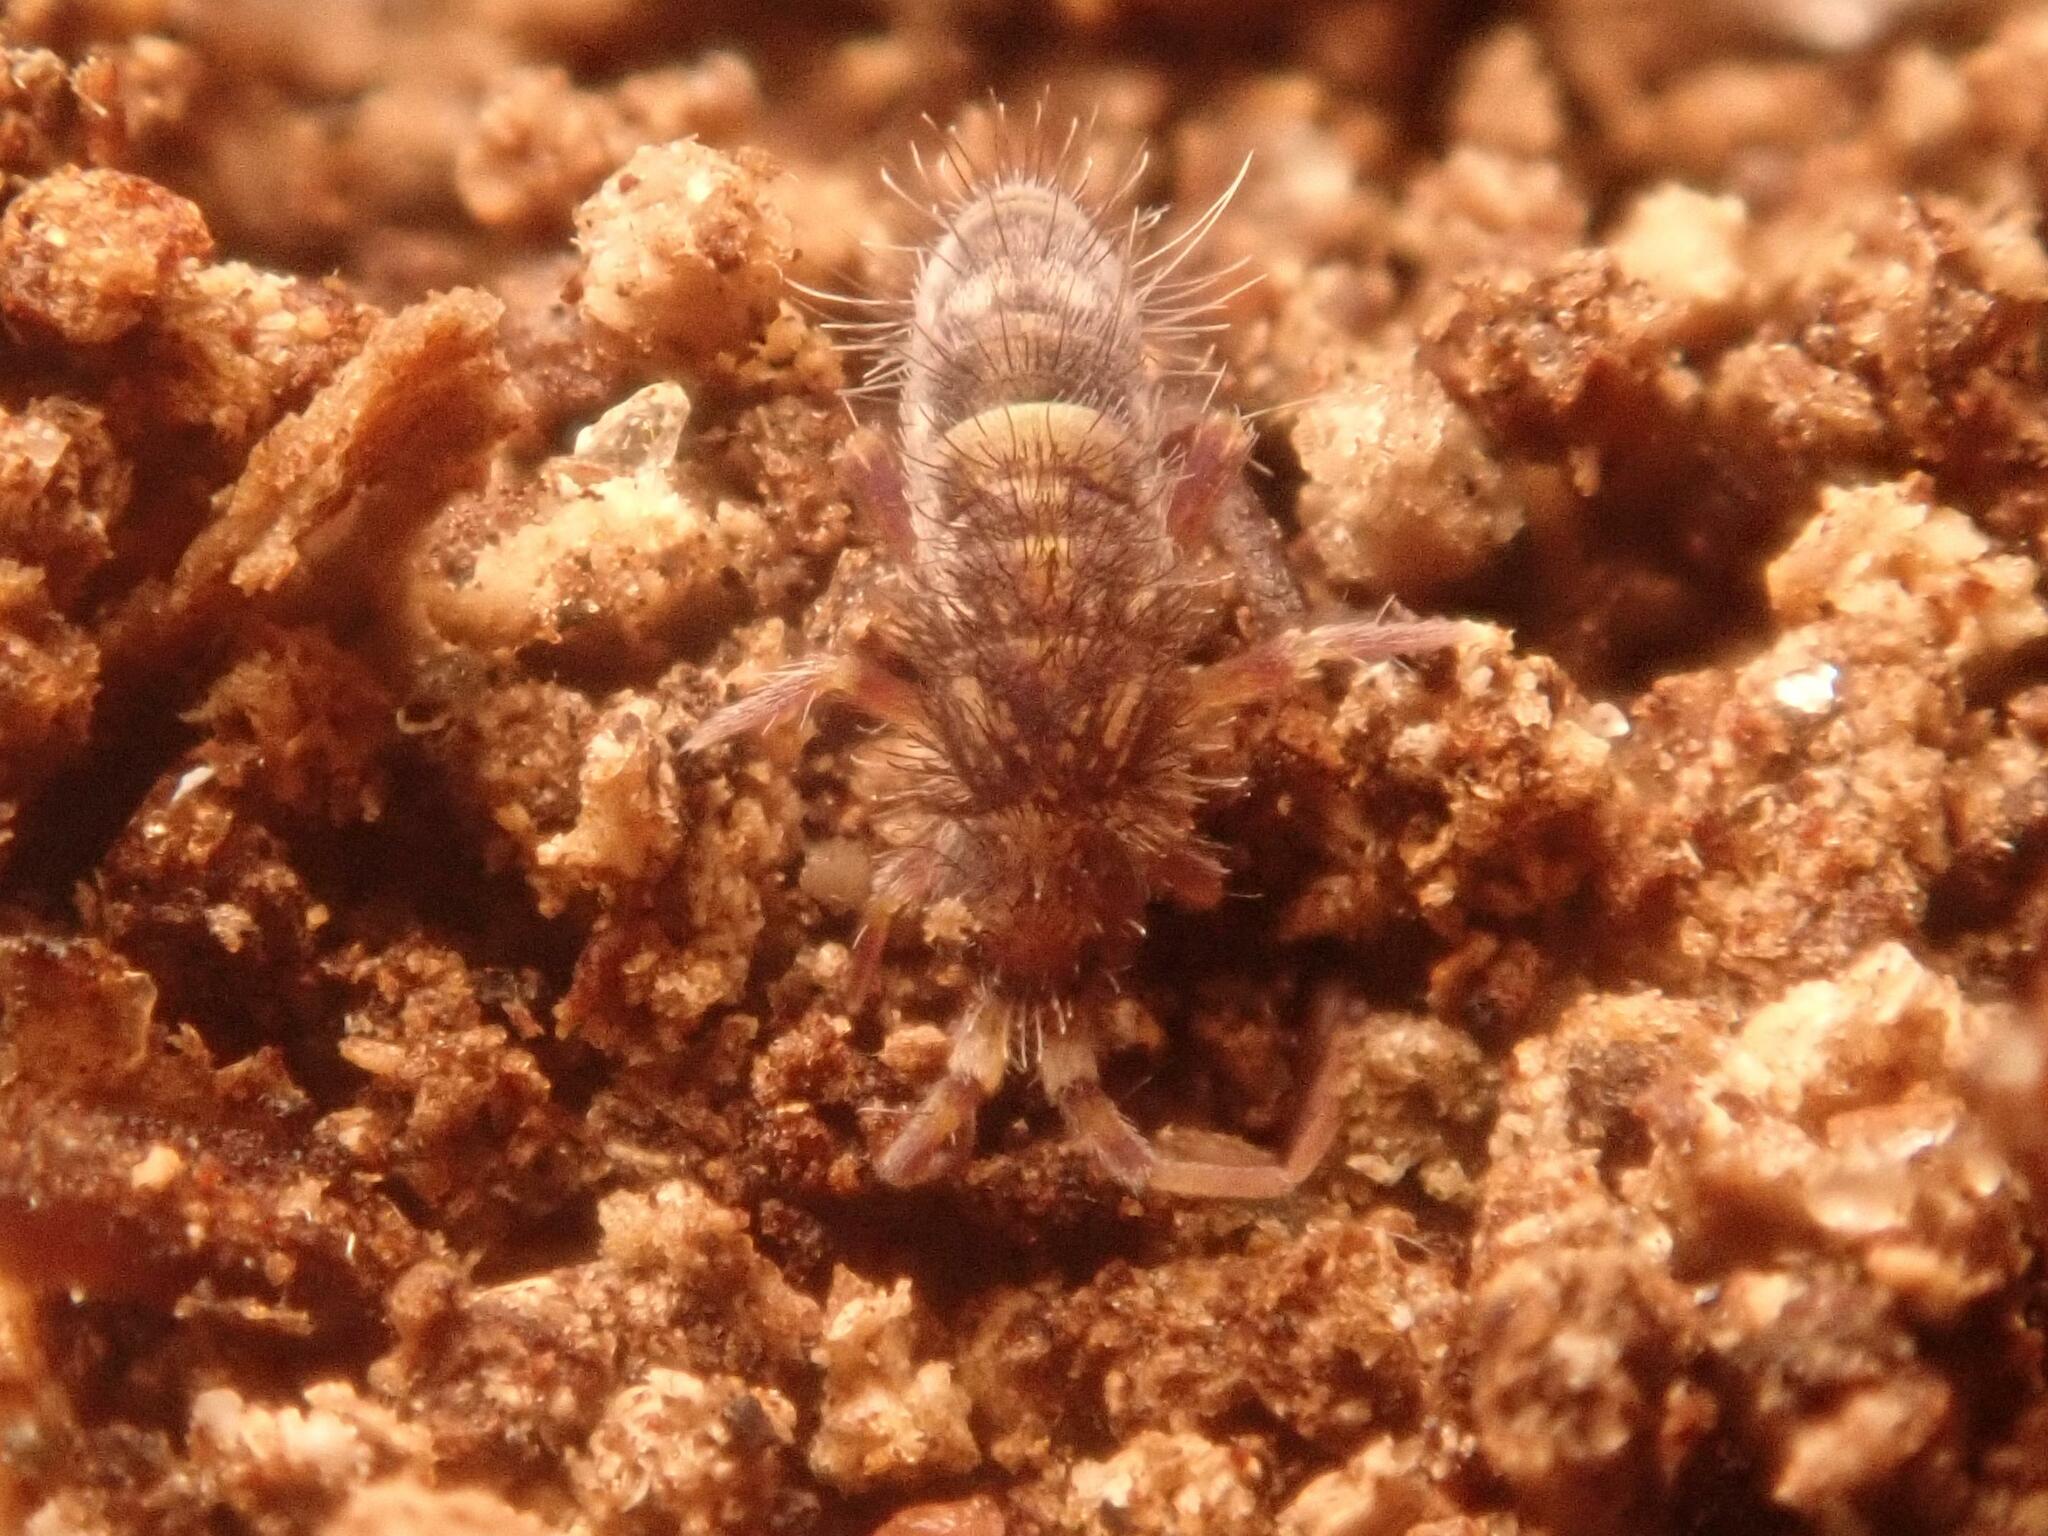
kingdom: Animalia
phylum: Arthropoda
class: Collembola
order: Entomobryomorpha
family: Orchesellidae
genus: Orchesella
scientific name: Orchesella cincta
